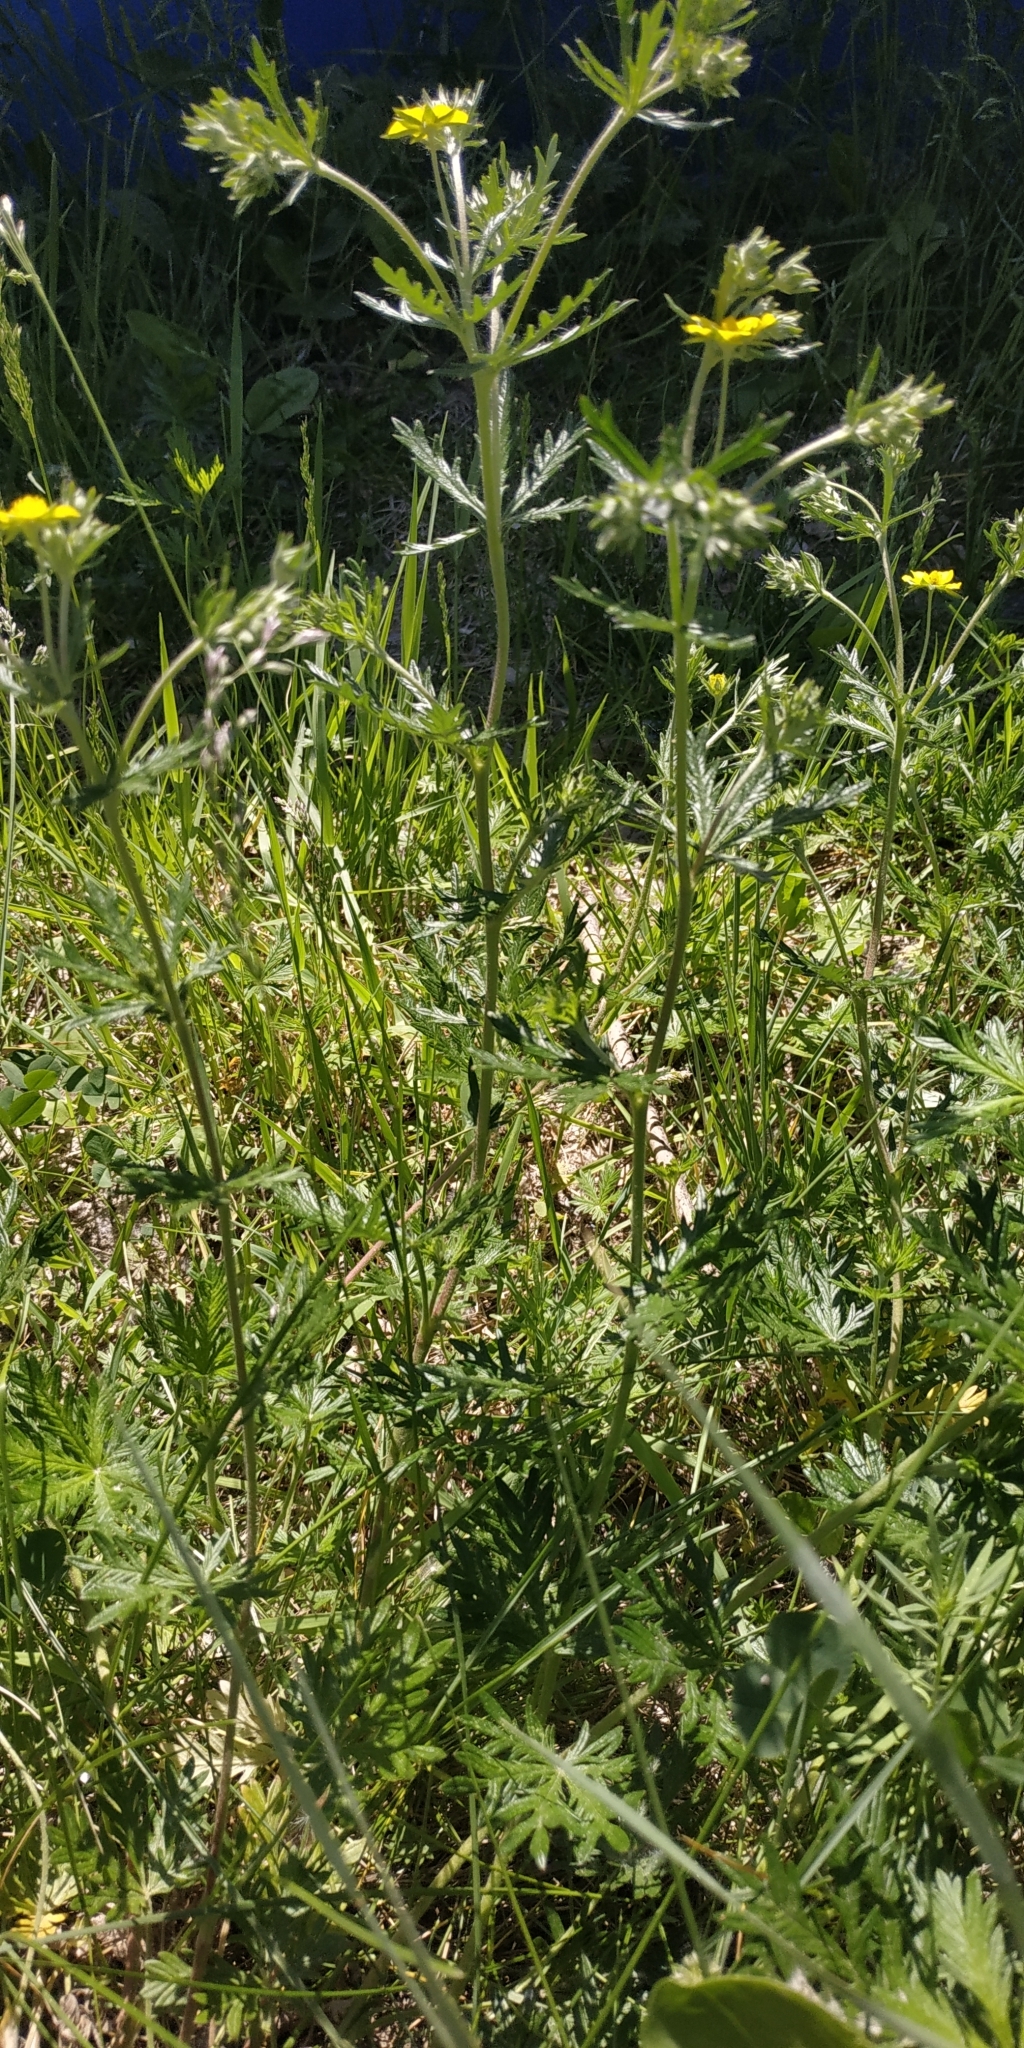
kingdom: Plantae
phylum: Tracheophyta
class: Magnoliopsida
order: Rosales
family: Rosaceae
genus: Potentilla
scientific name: Potentilla argentea
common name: Hoary cinquefoil
